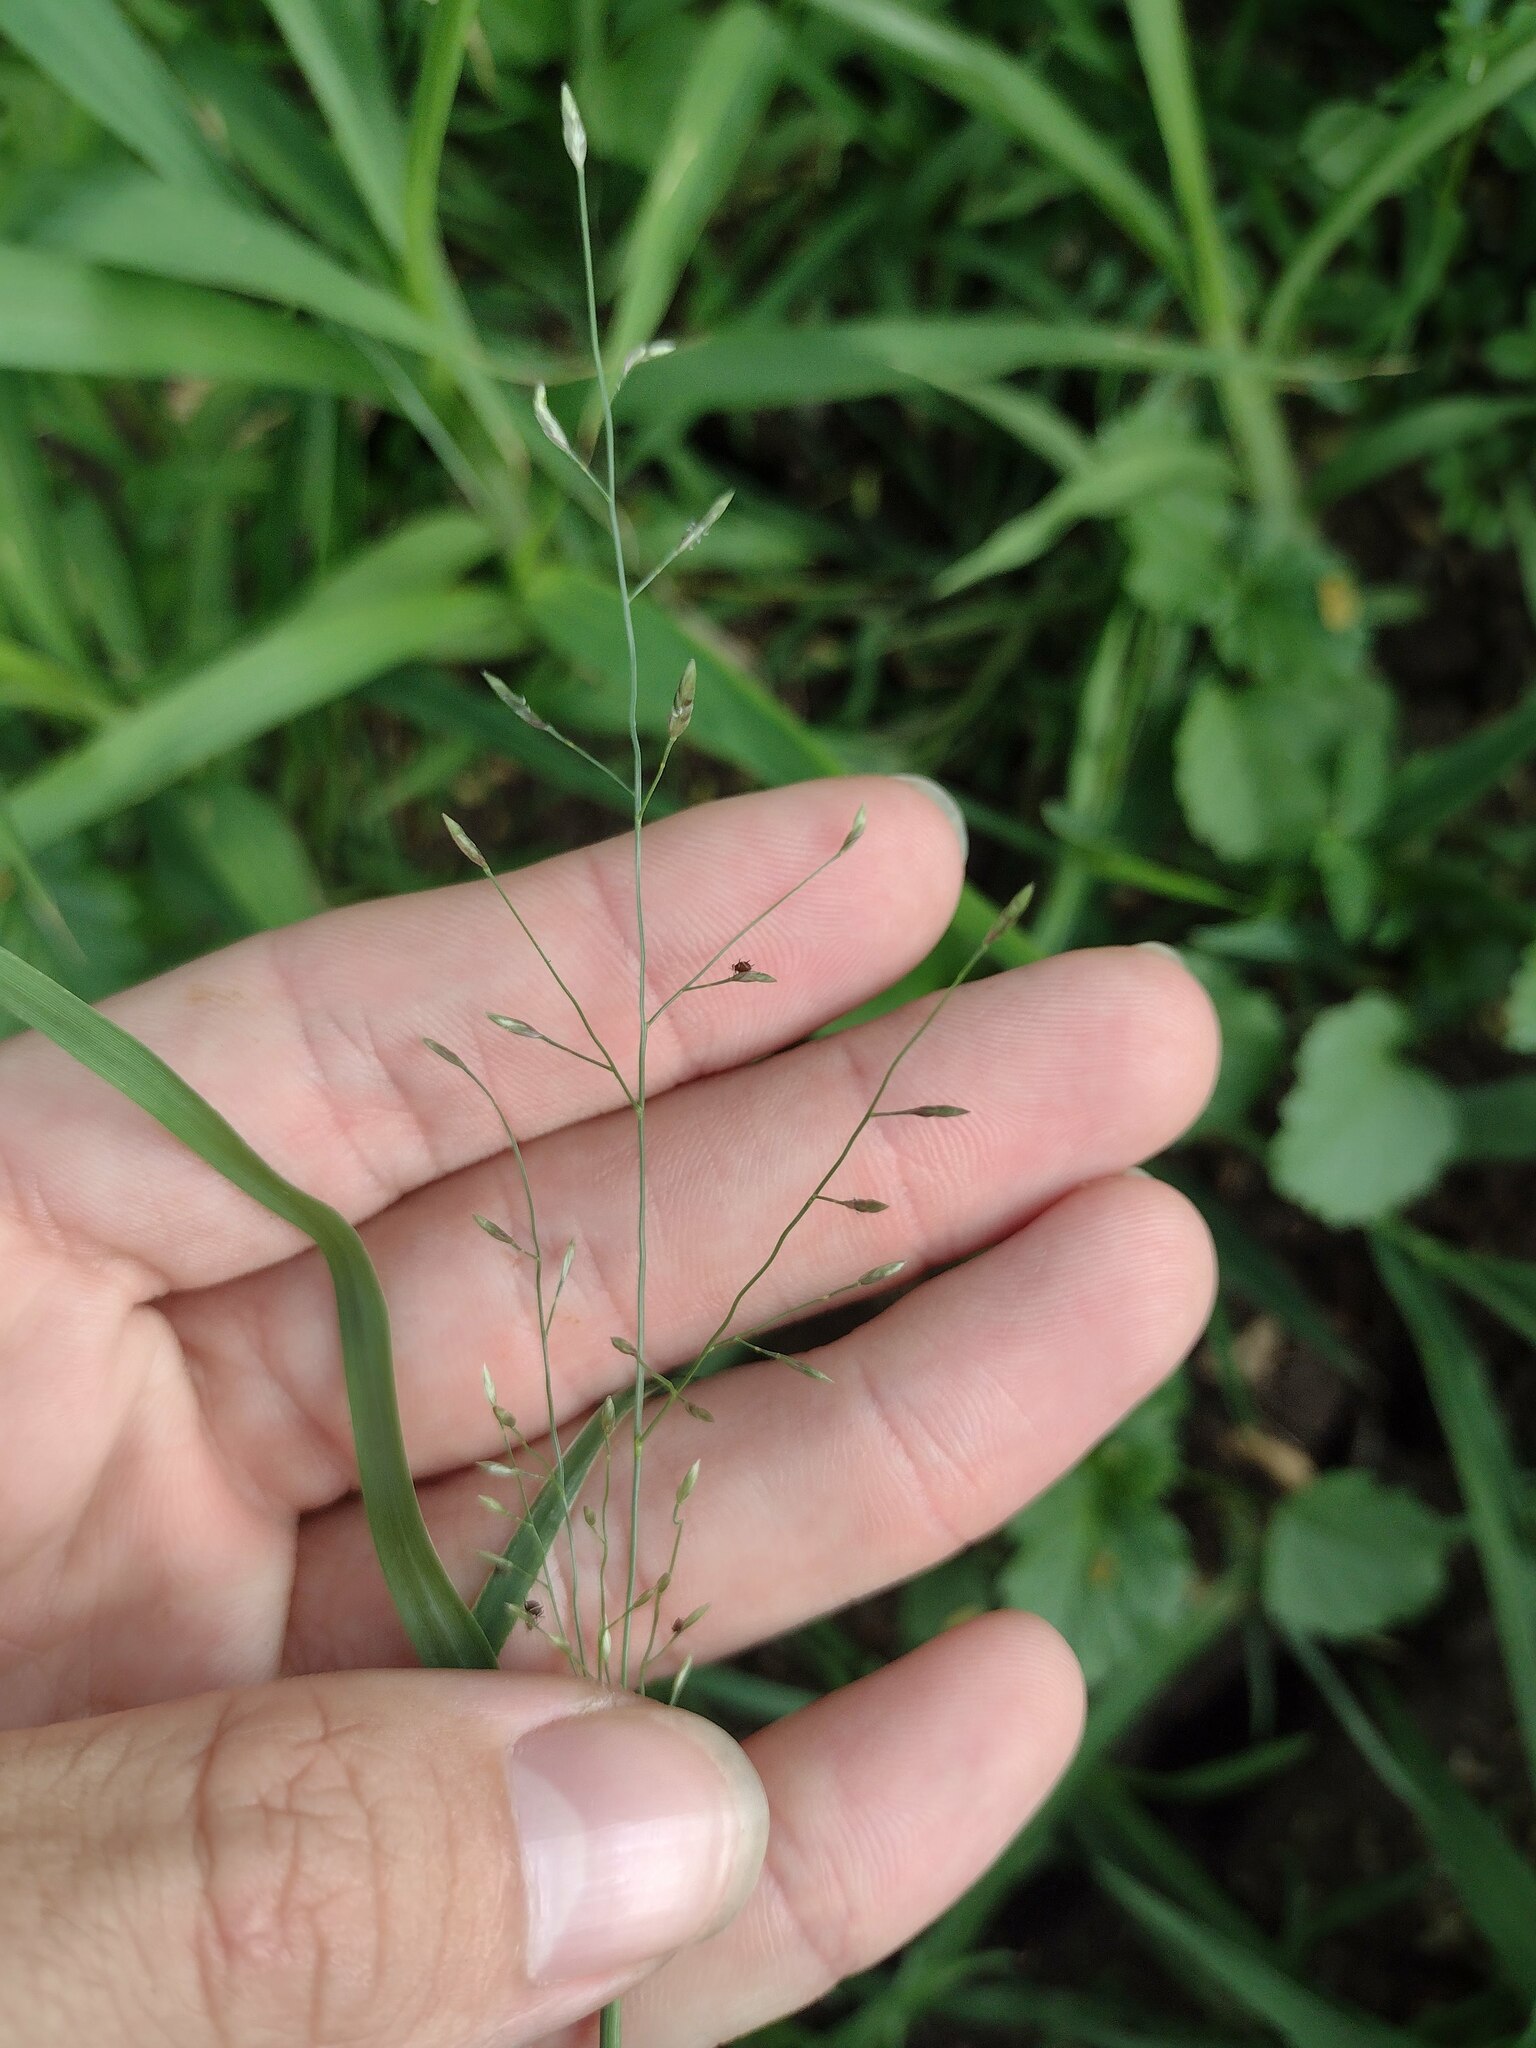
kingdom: Plantae
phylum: Tracheophyta
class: Liliopsida
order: Poales
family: Poaceae
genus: Eragrostis
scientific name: Eragrostis barrelieri
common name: Mediterranean lovegrass
